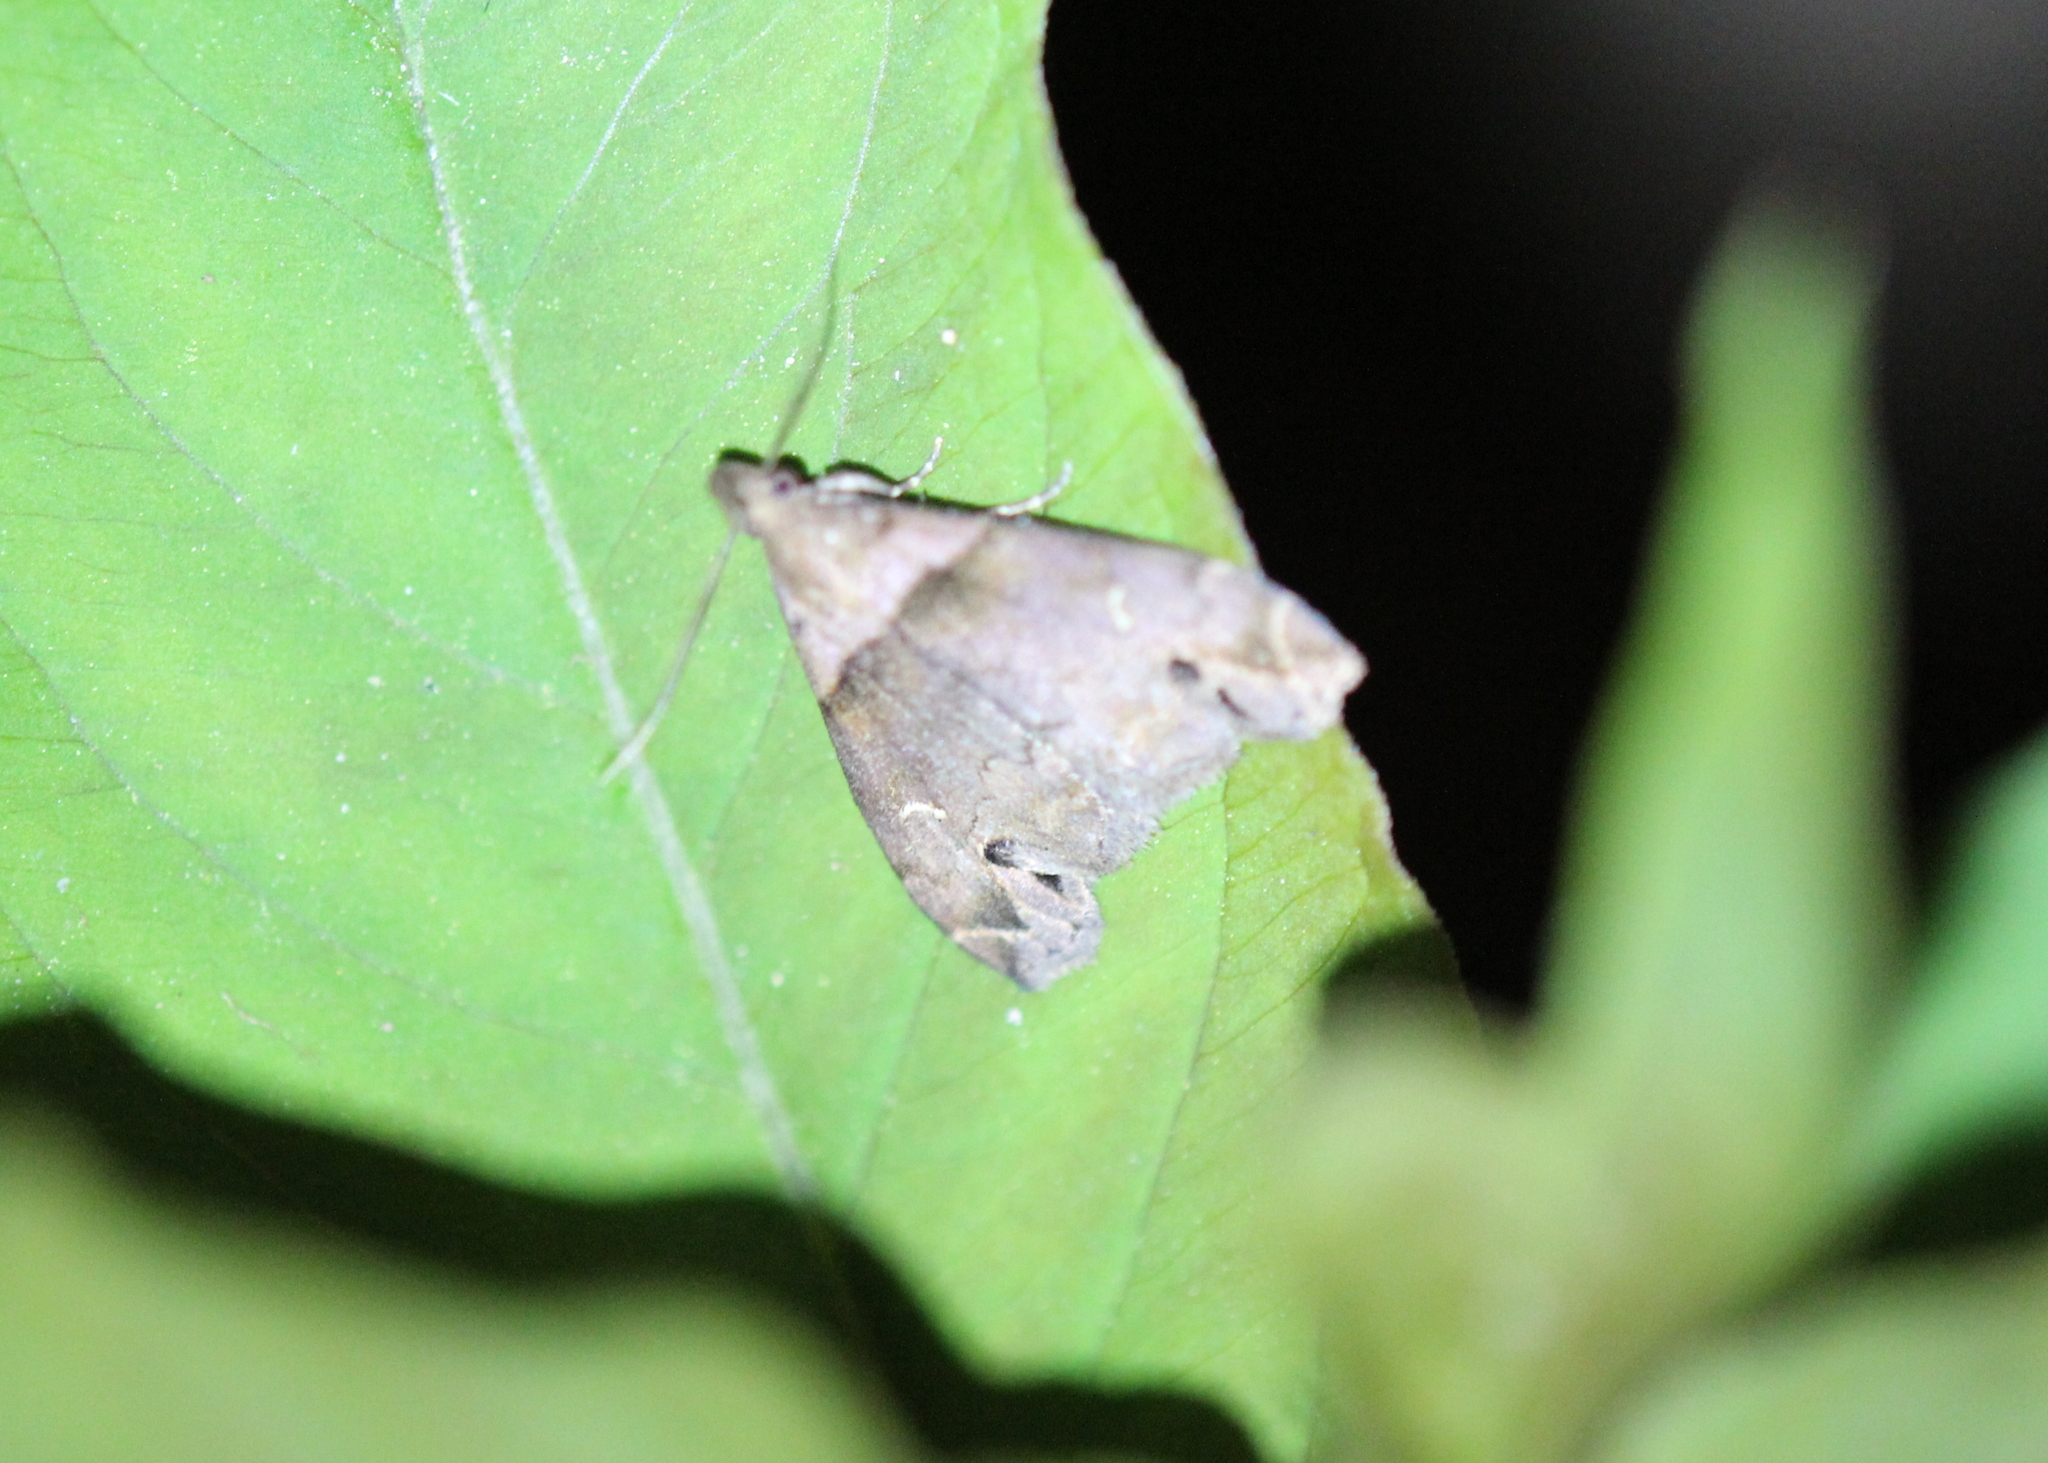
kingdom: Animalia
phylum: Arthropoda
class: Insecta
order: Lepidoptera
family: Erebidae
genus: Lascoria
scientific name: Lascoria ambigualis
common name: Ambiguous moth
